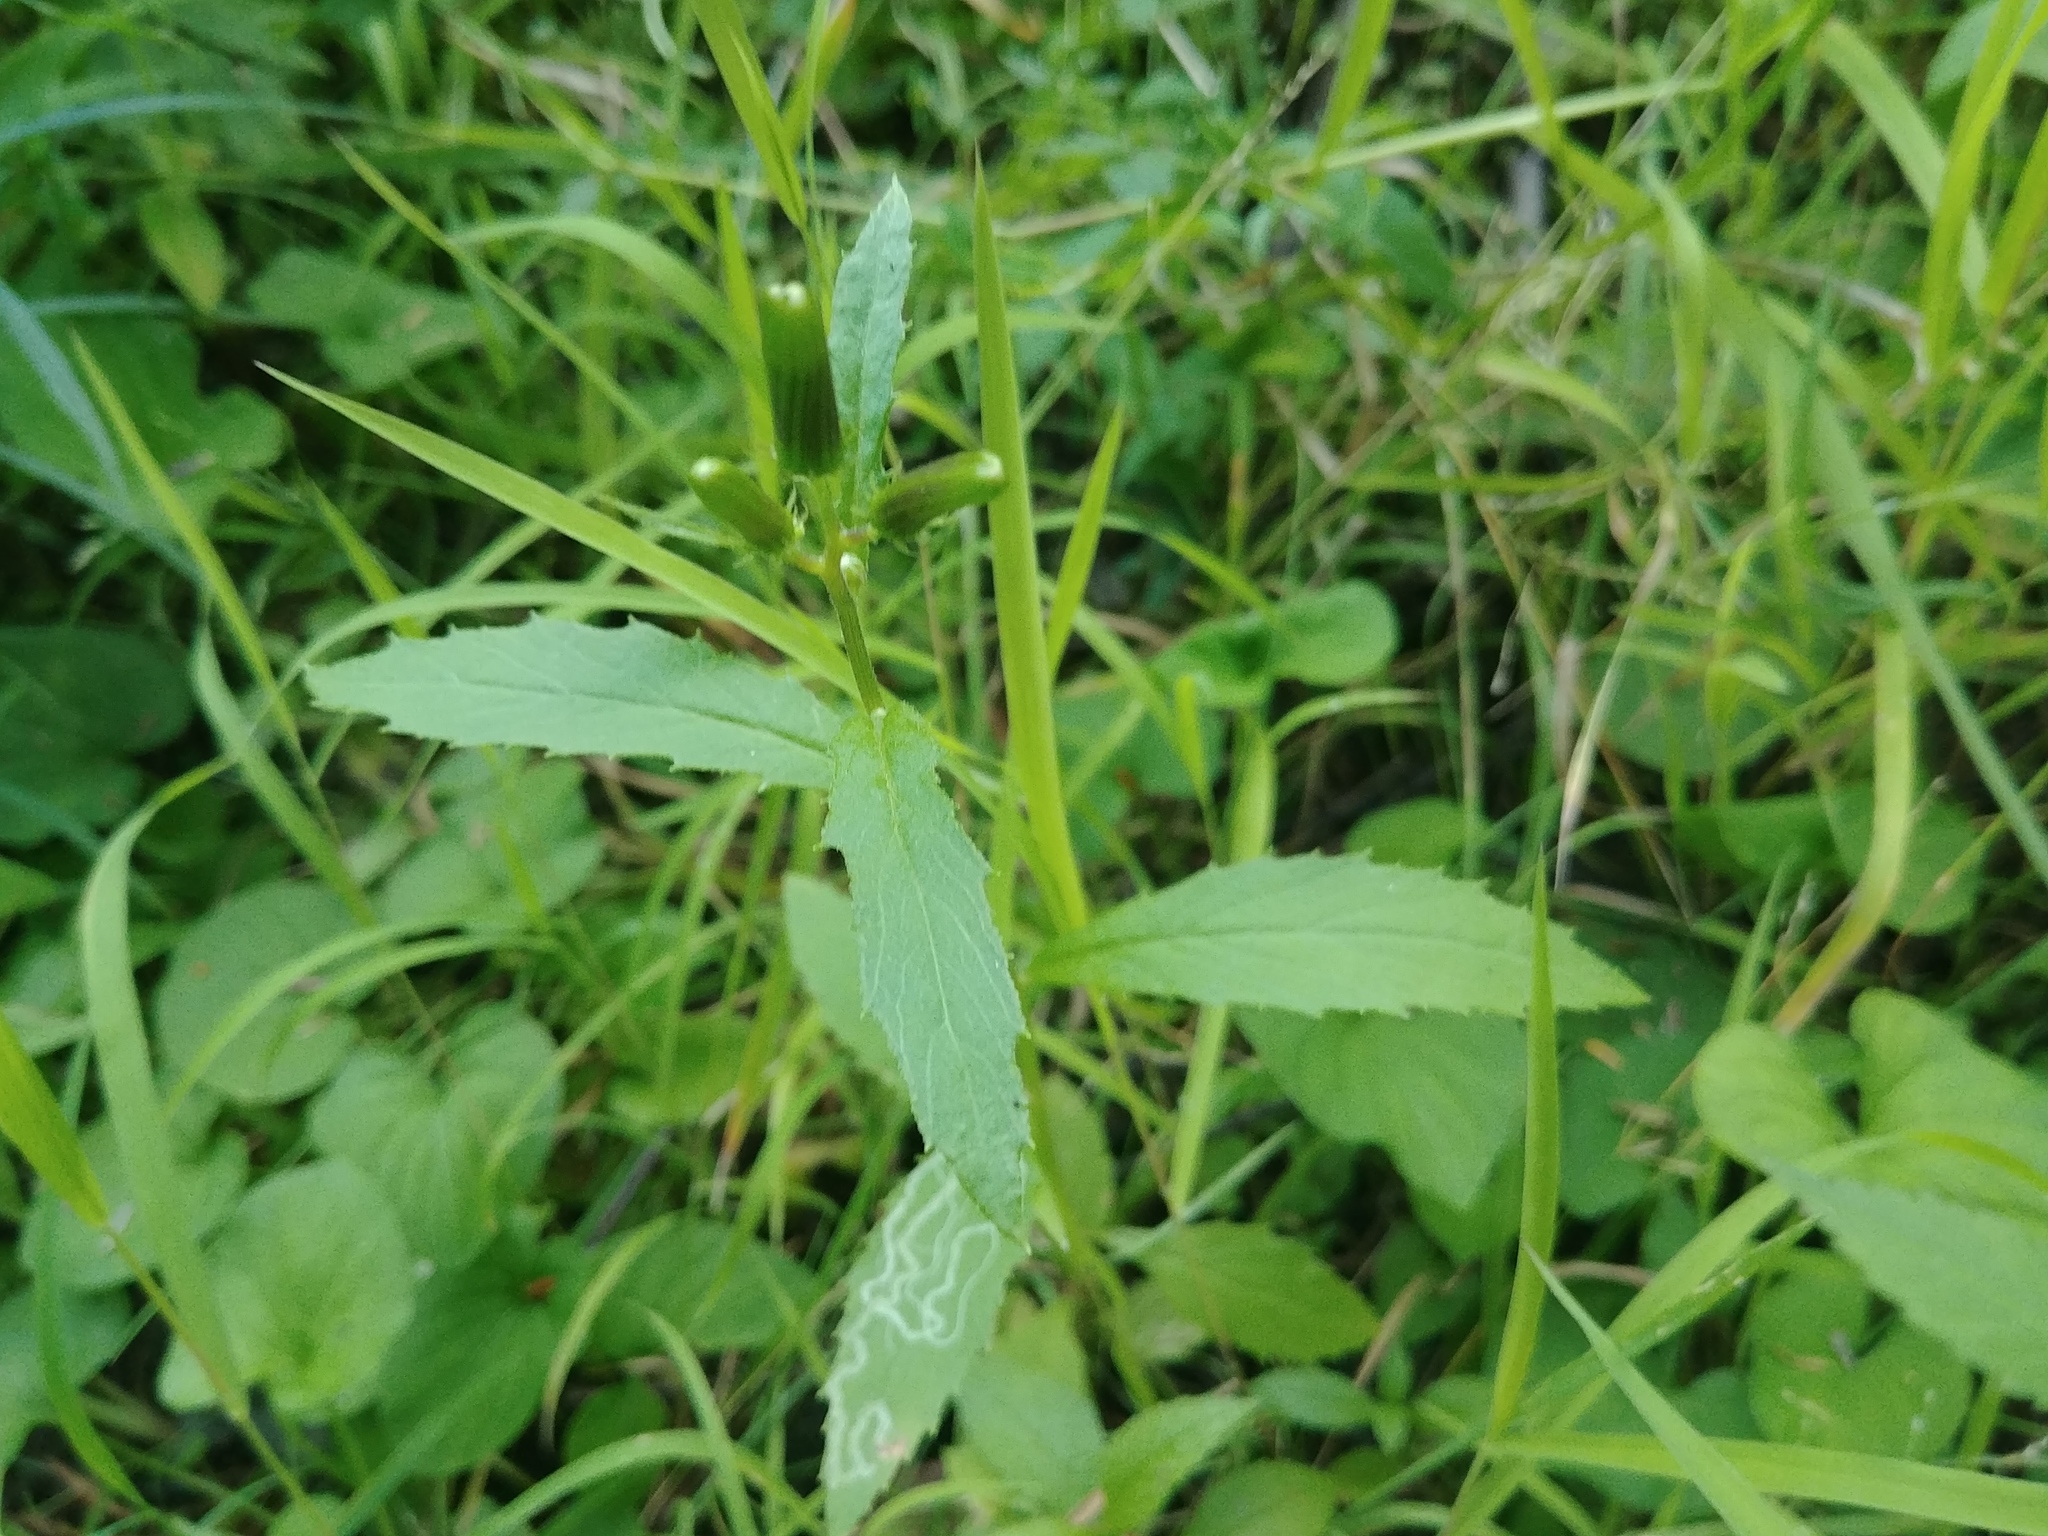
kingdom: Plantae
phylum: Tracheophyta
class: Magnoliopsida
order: Asterales
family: Asteraceae
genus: Erechtites
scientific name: Erechtites hieraciifolius
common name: American burnweed
